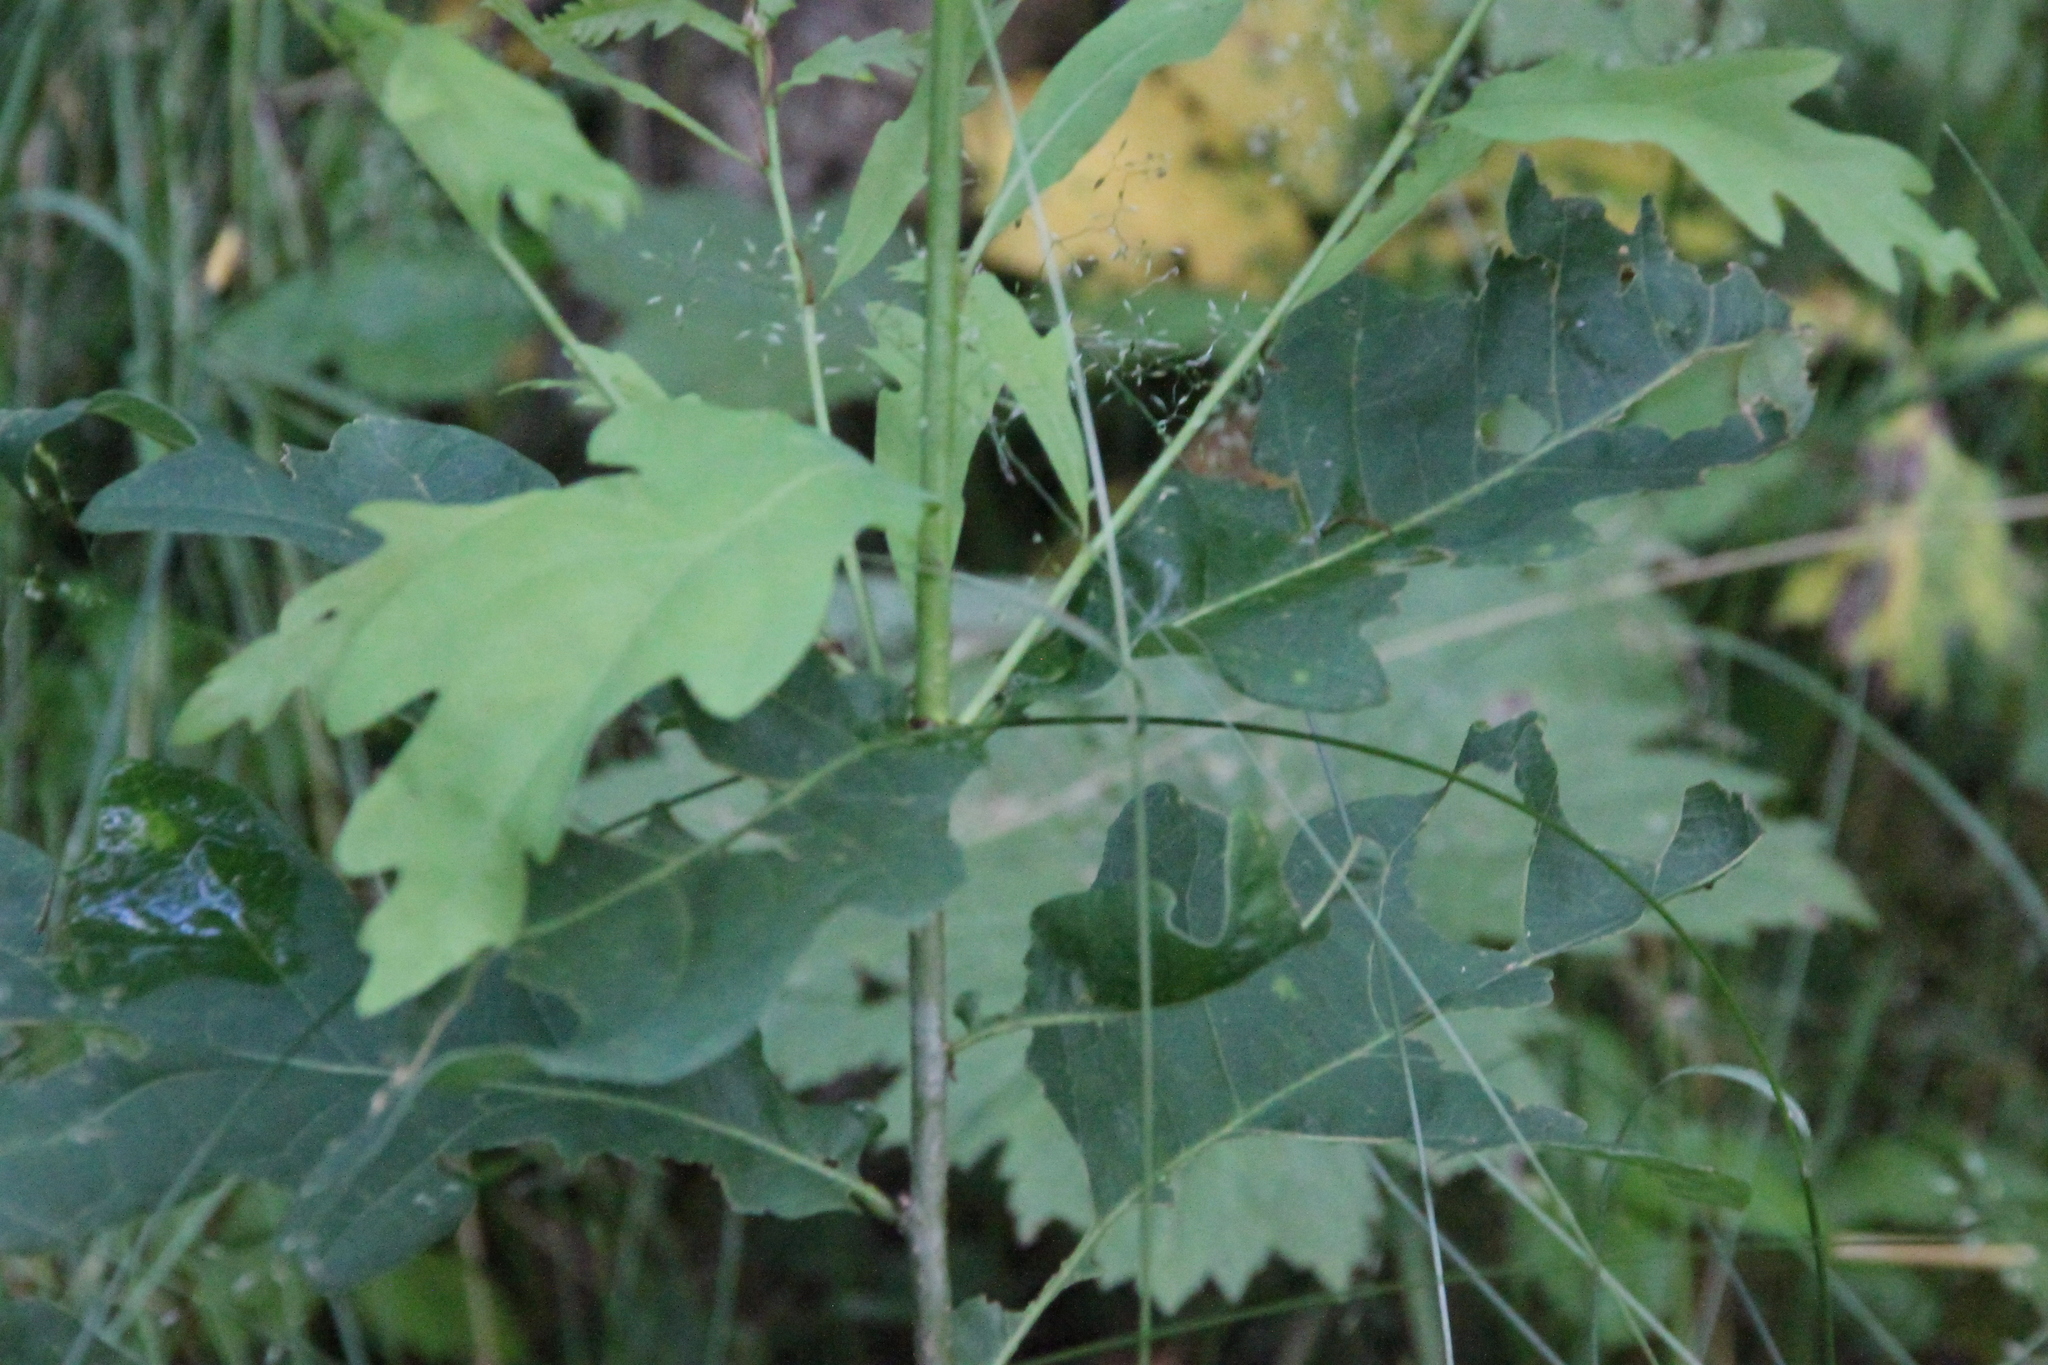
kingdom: Plantae
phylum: Tracheophyta
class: Magnoliopsida
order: Fagales
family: Fagaceae
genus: Quercus
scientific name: Quercus robur
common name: Pedunculate oak
